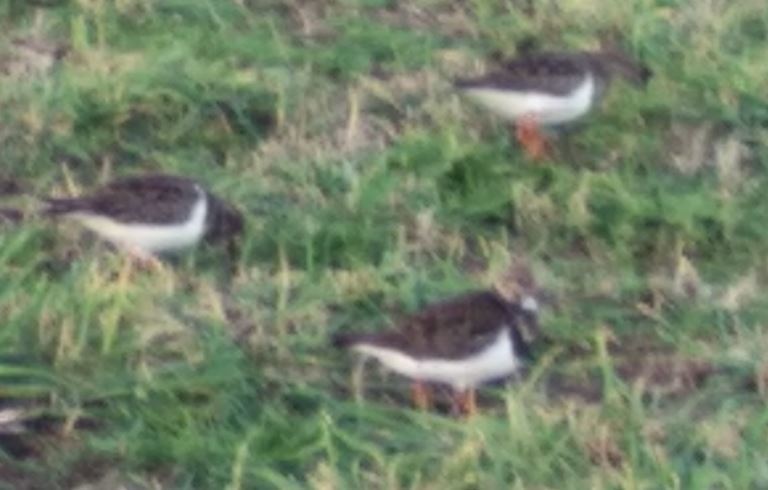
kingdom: Animalia
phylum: Chordata
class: Aves
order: Charadriiformes
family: Scolopacidae
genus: Arenaria
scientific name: Arenaria interpres
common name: Ruddy turnstone
